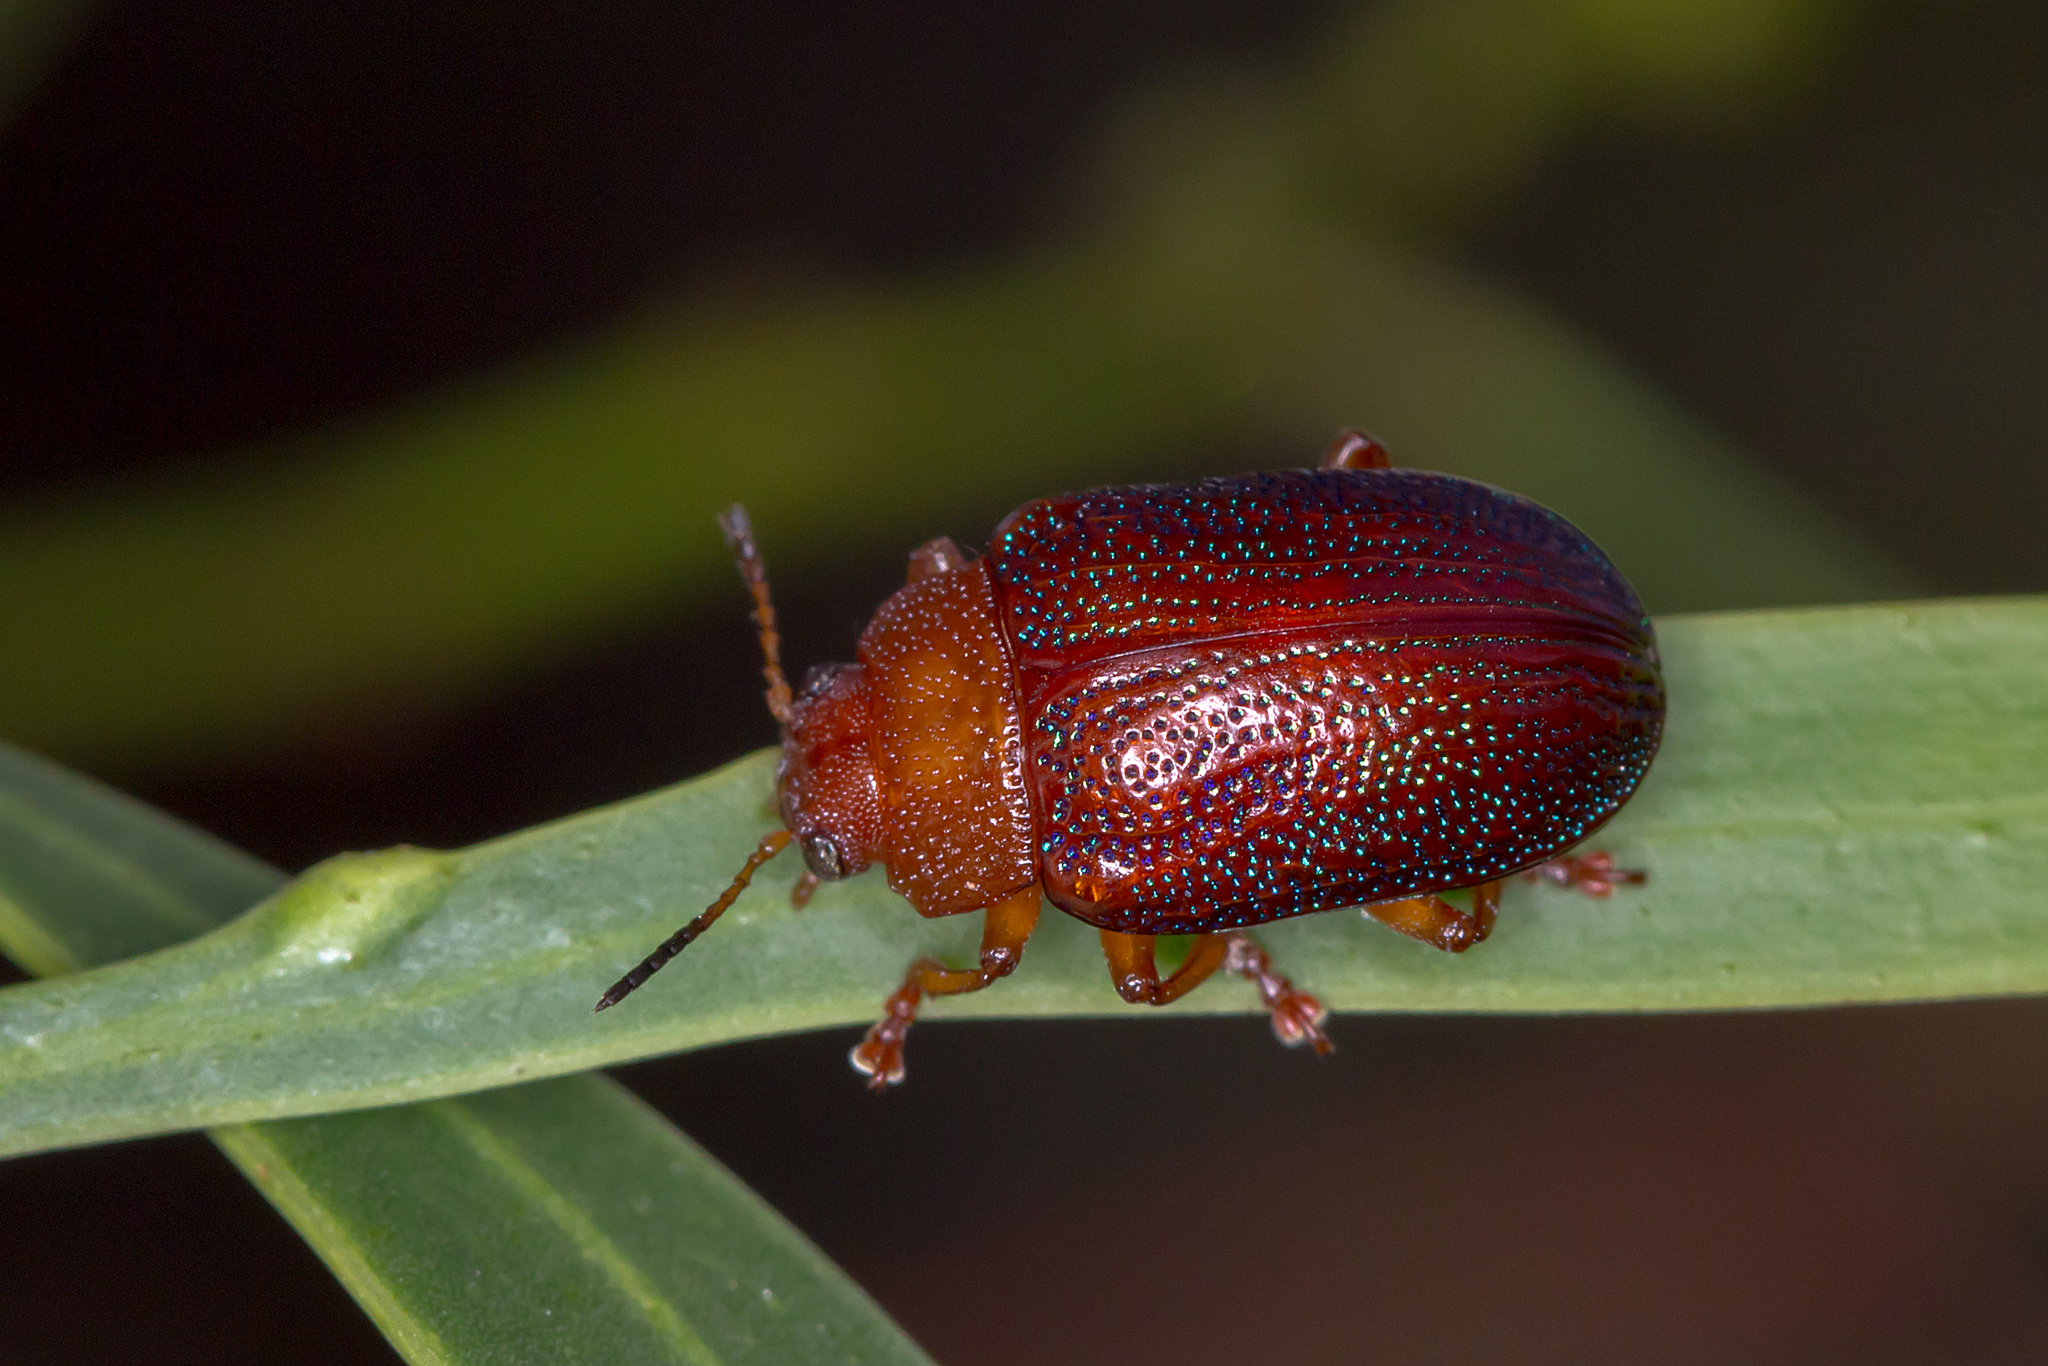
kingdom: Animalia
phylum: Arthropoda
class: Insecta
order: Coleoptera
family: Chrysomelidae
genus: Calomela
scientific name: Calomela
